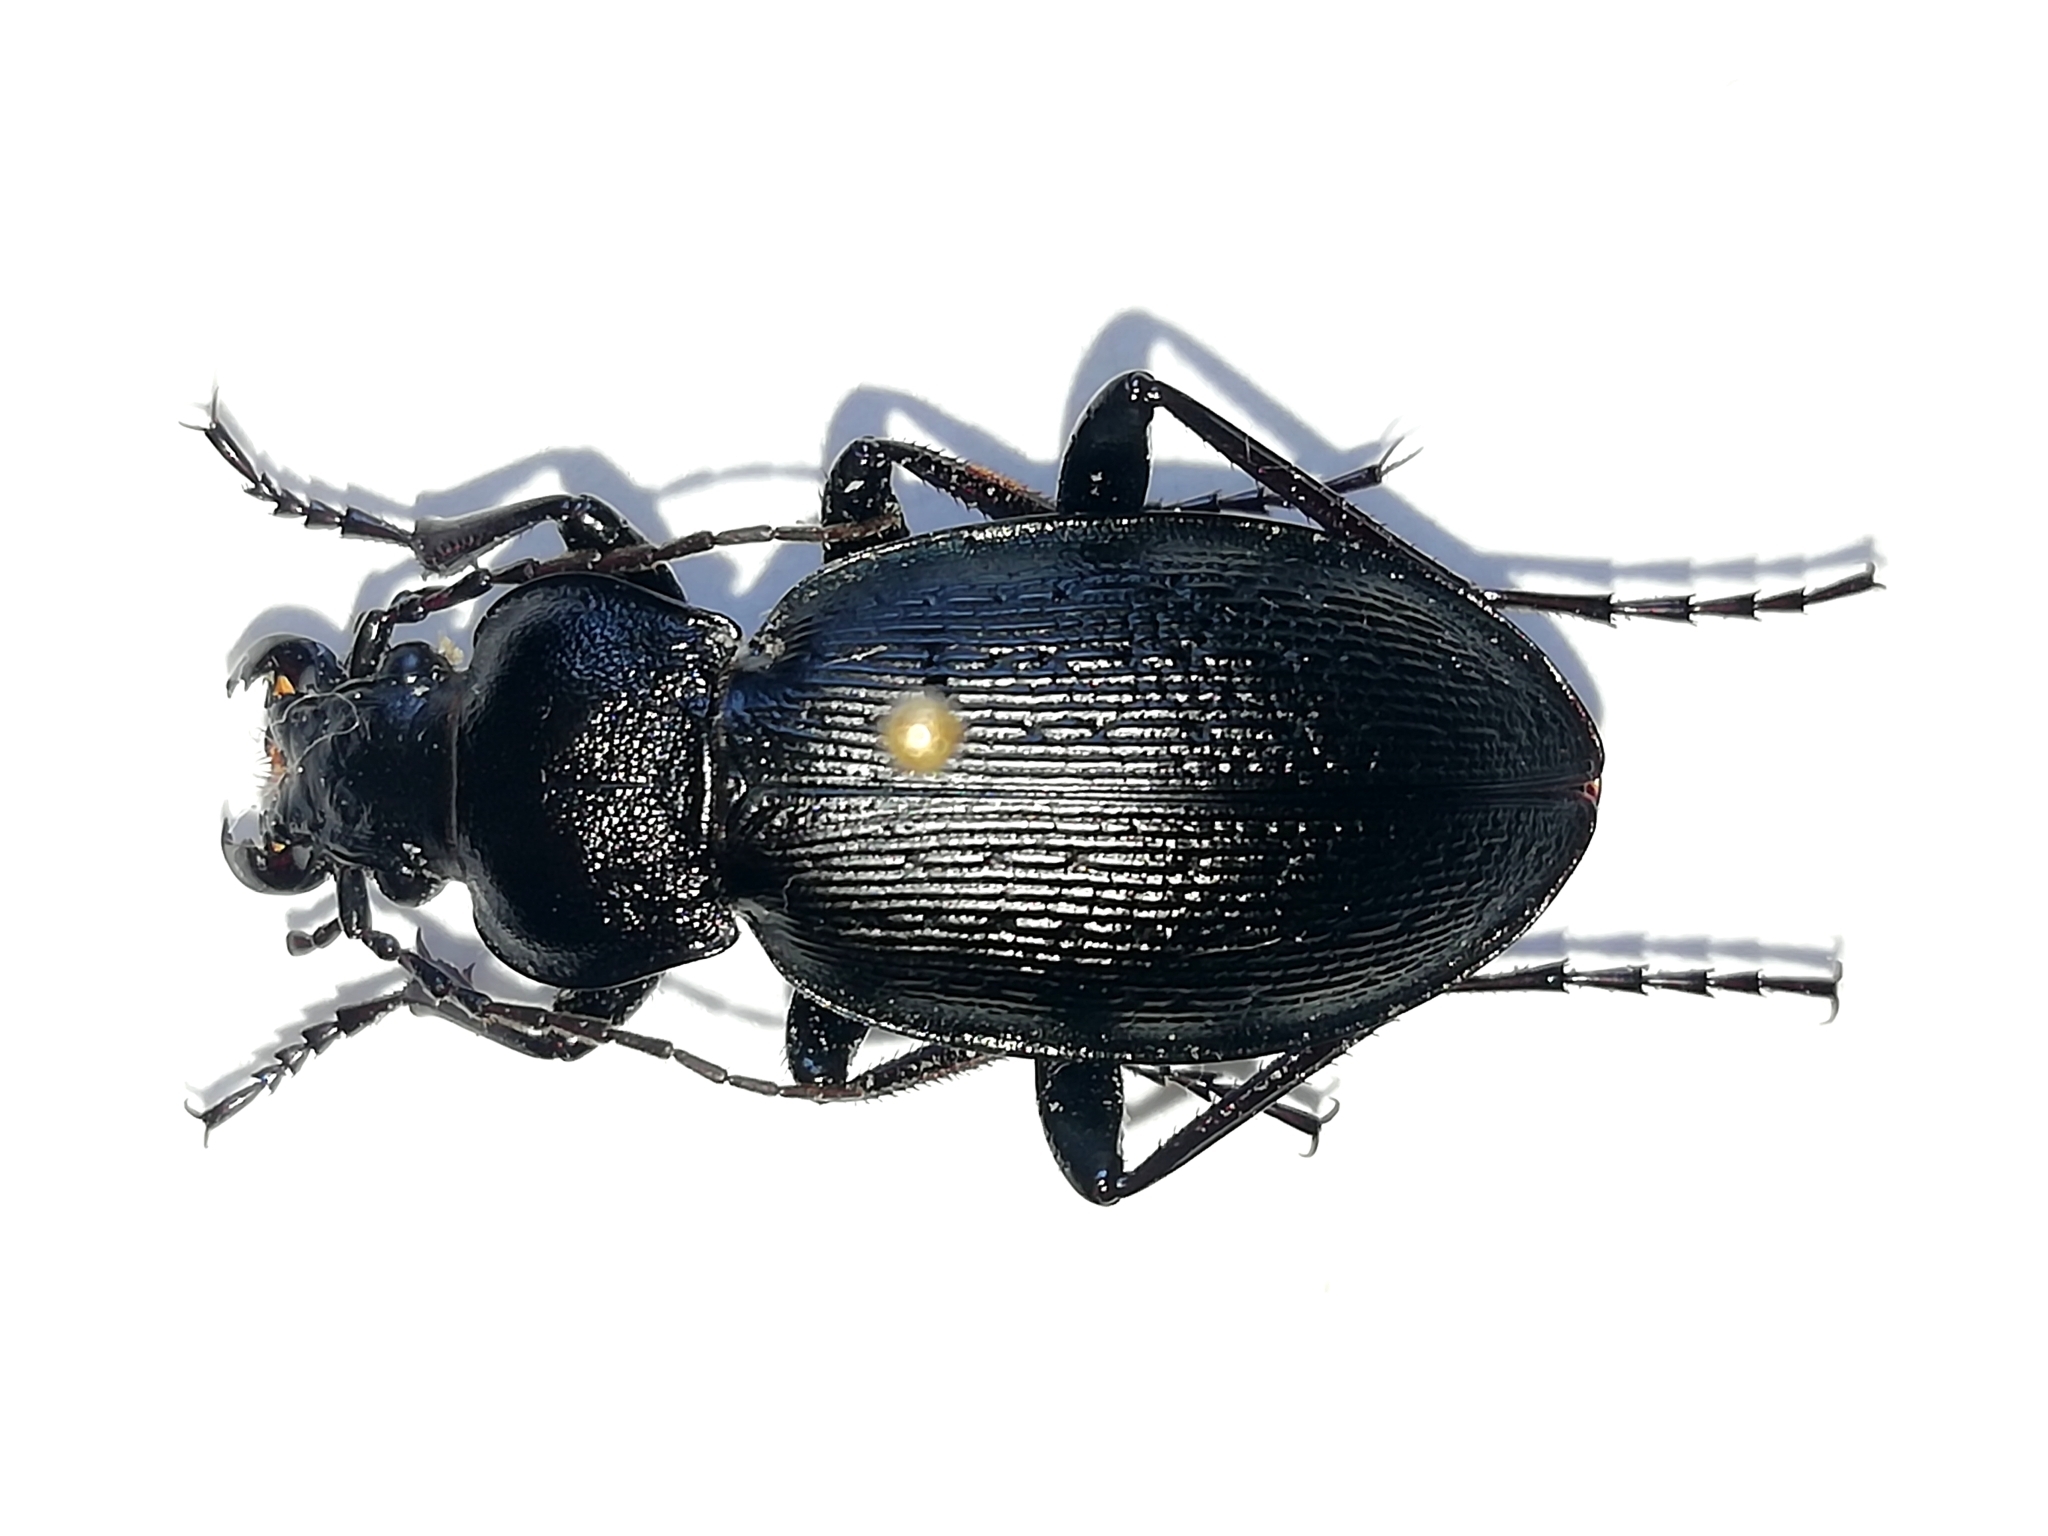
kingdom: Animalia
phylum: Arthropoda
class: Insecta
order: Coleoptera
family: Carabidae
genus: Carabus
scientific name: Carabus spasskianus
